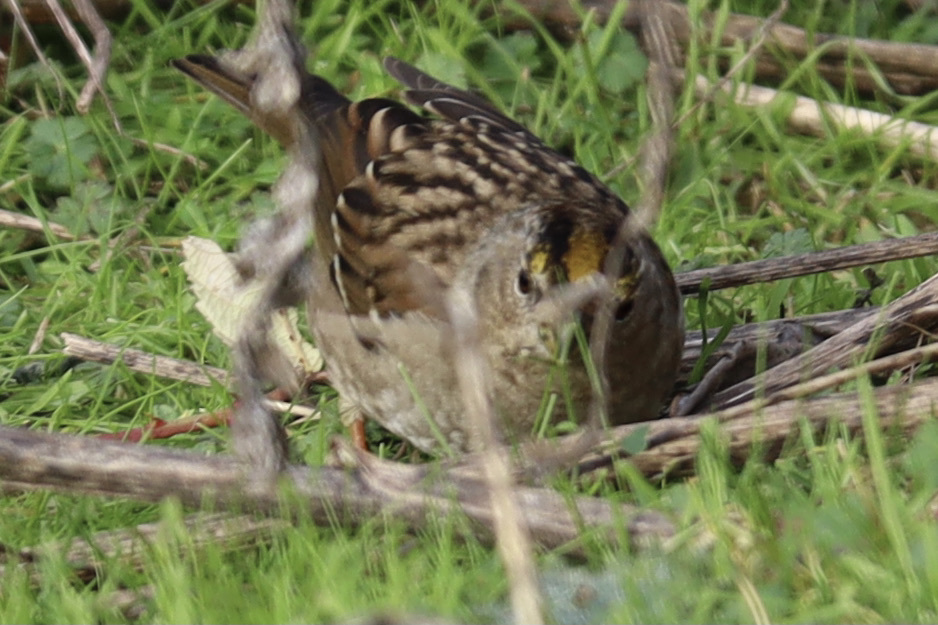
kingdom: Animalia
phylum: Chordata
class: Aves
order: Passeriformes
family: Passerellidae
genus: Zonotrichia
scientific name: Zonotrichia atricapilla
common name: Golden-crowned sparrow
